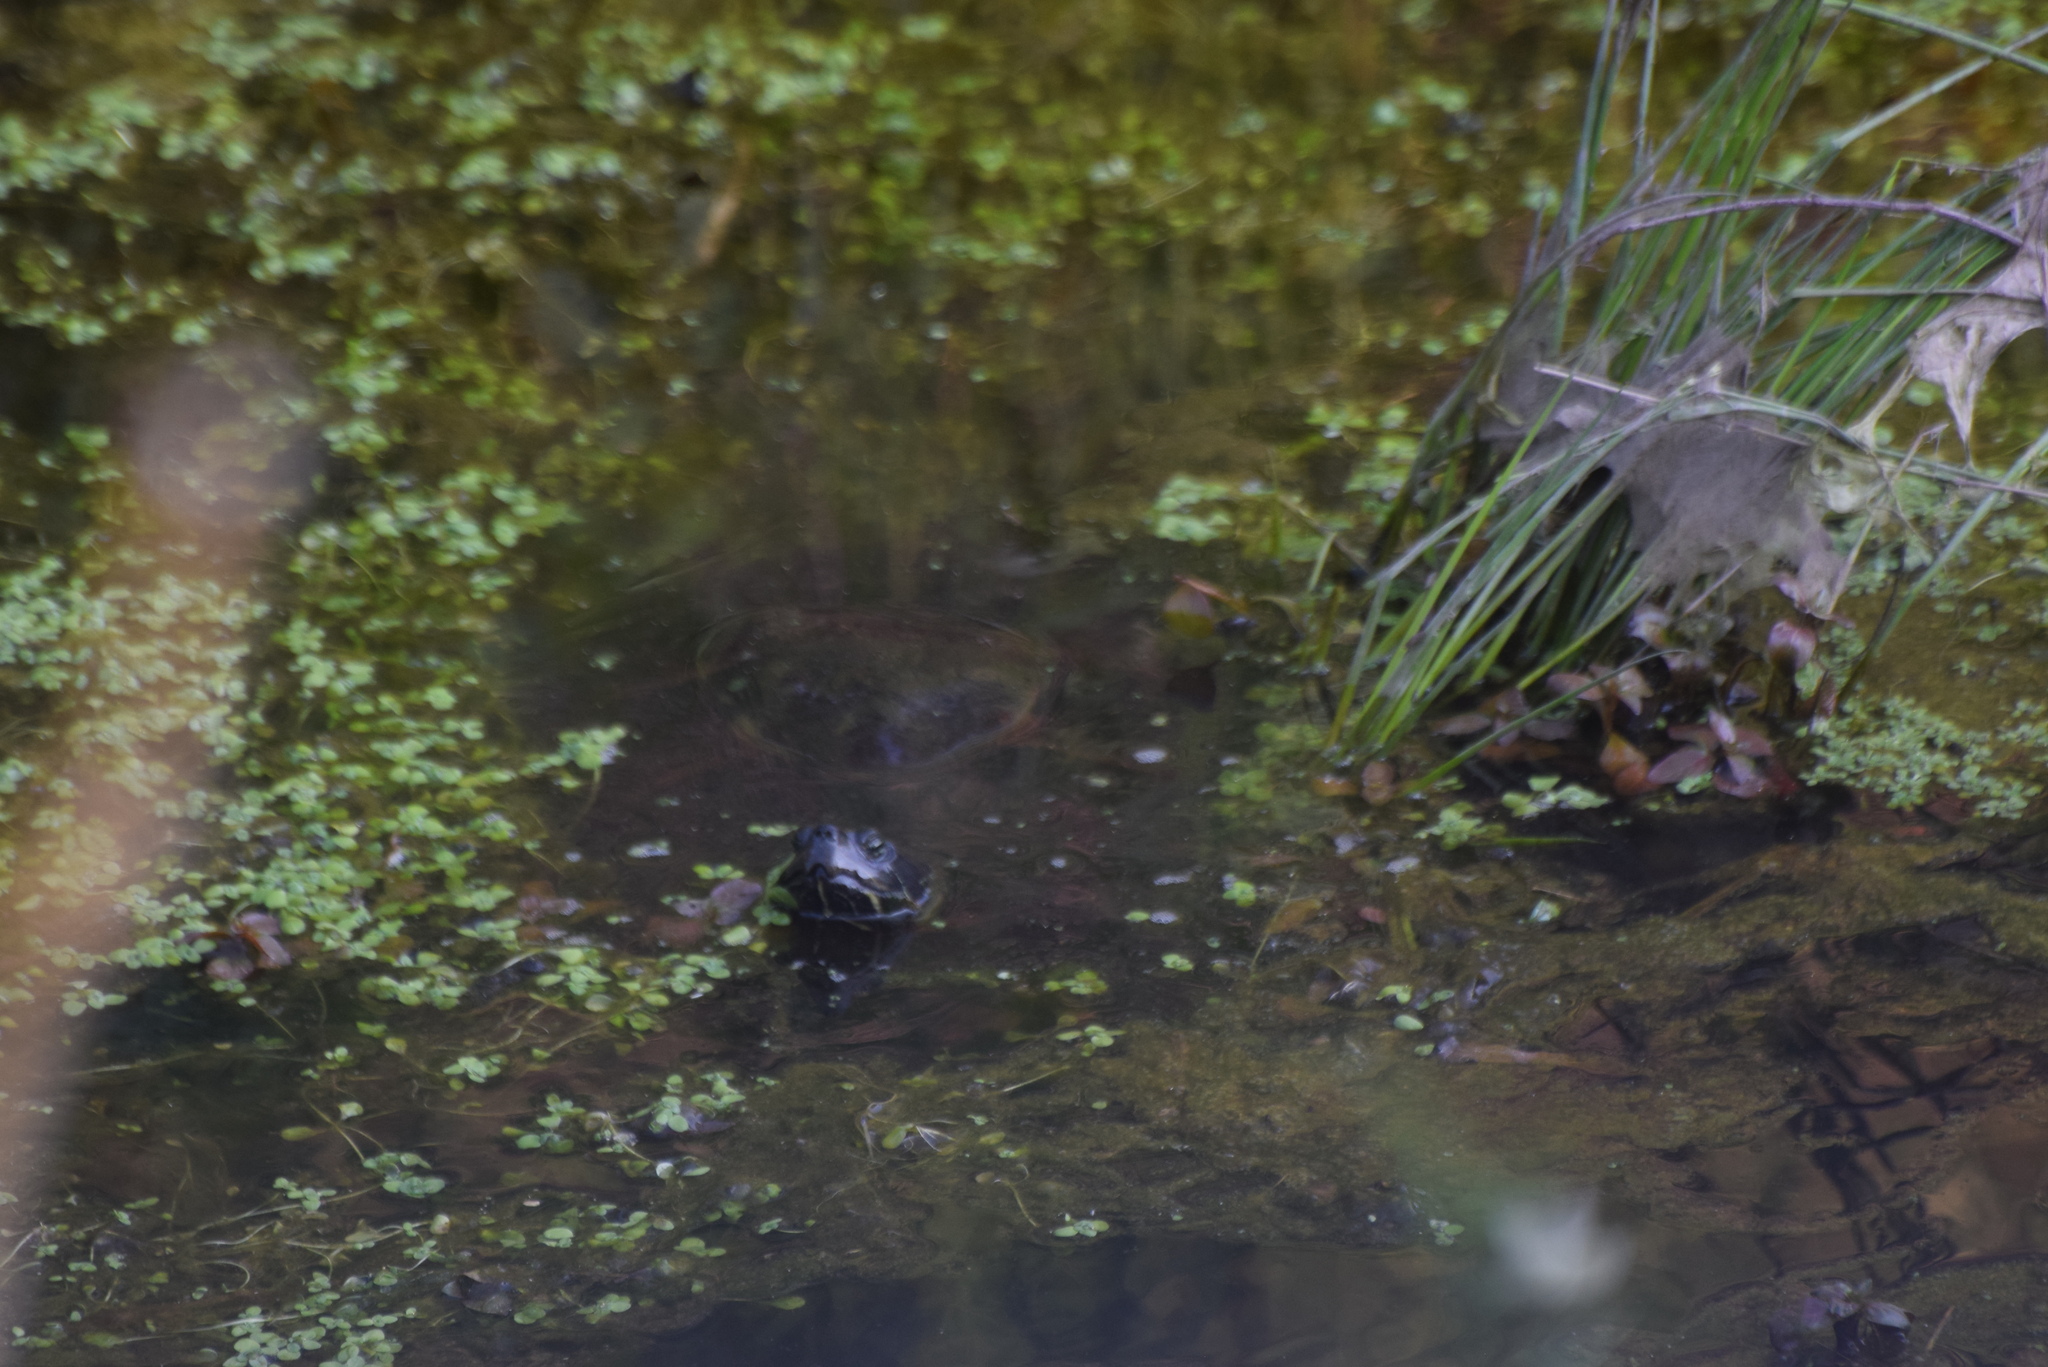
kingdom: Animalia
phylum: Chordata
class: Testudines
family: Emydidae
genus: Pseudemys
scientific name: Pseudemys rubriventris
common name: American red-bellied turtle
